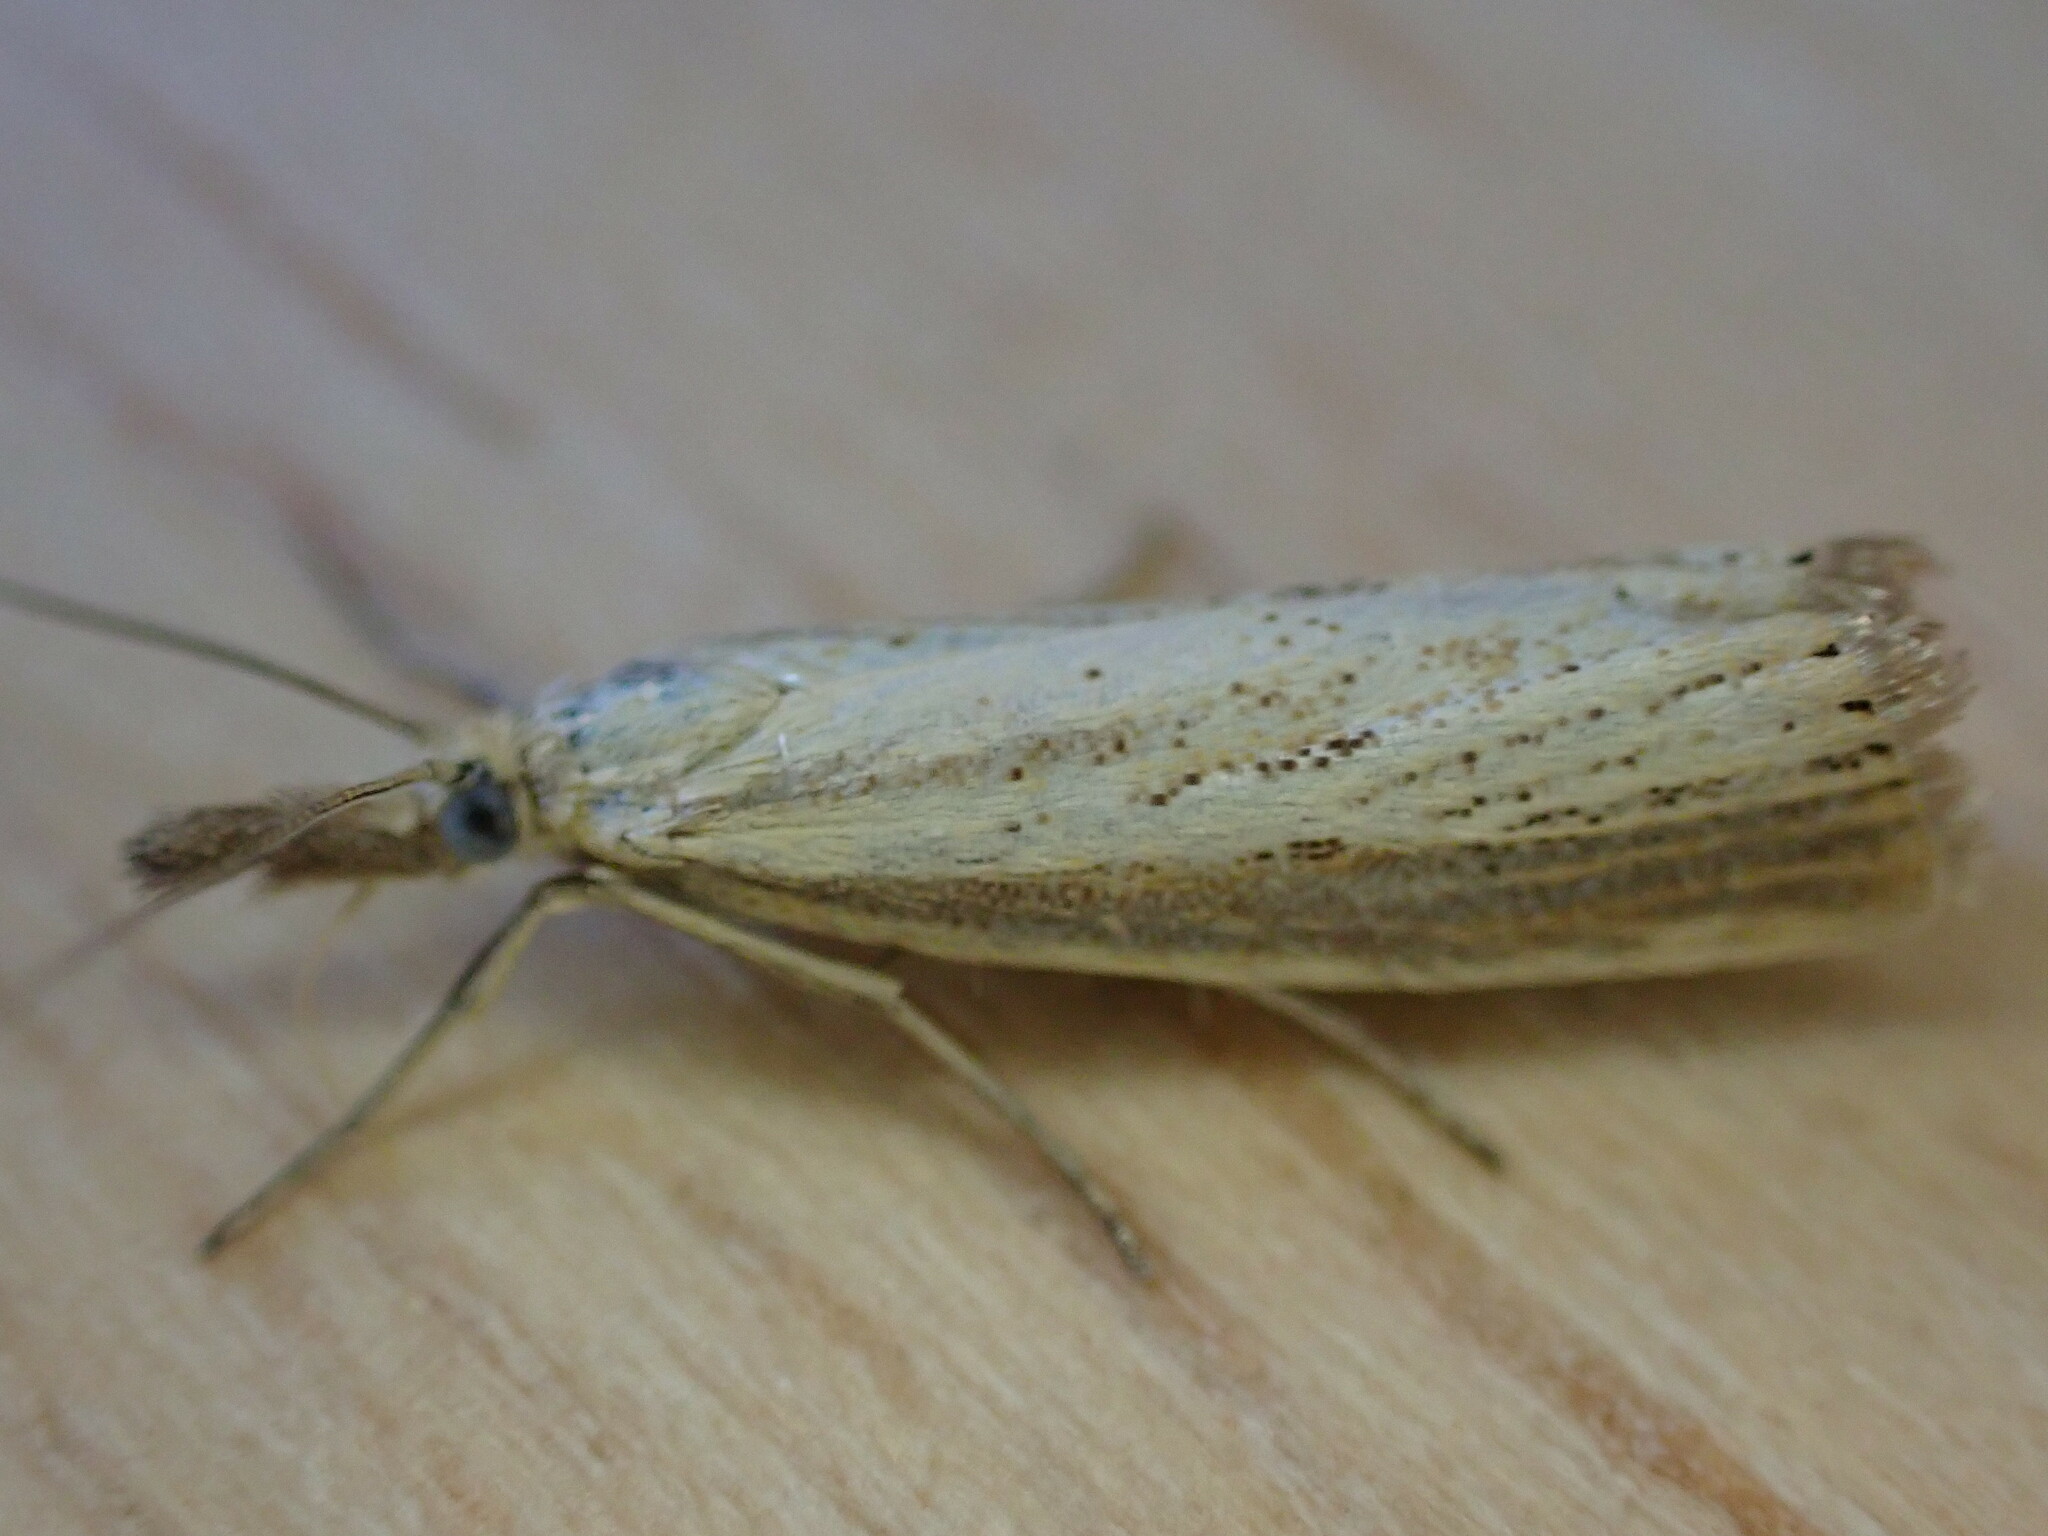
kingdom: Animalia
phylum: Arthropoda
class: Insecta
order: Lepidoptera
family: Crambidae
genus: Agriphila
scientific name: Agriphila straminella
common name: Straw grass-veneer
